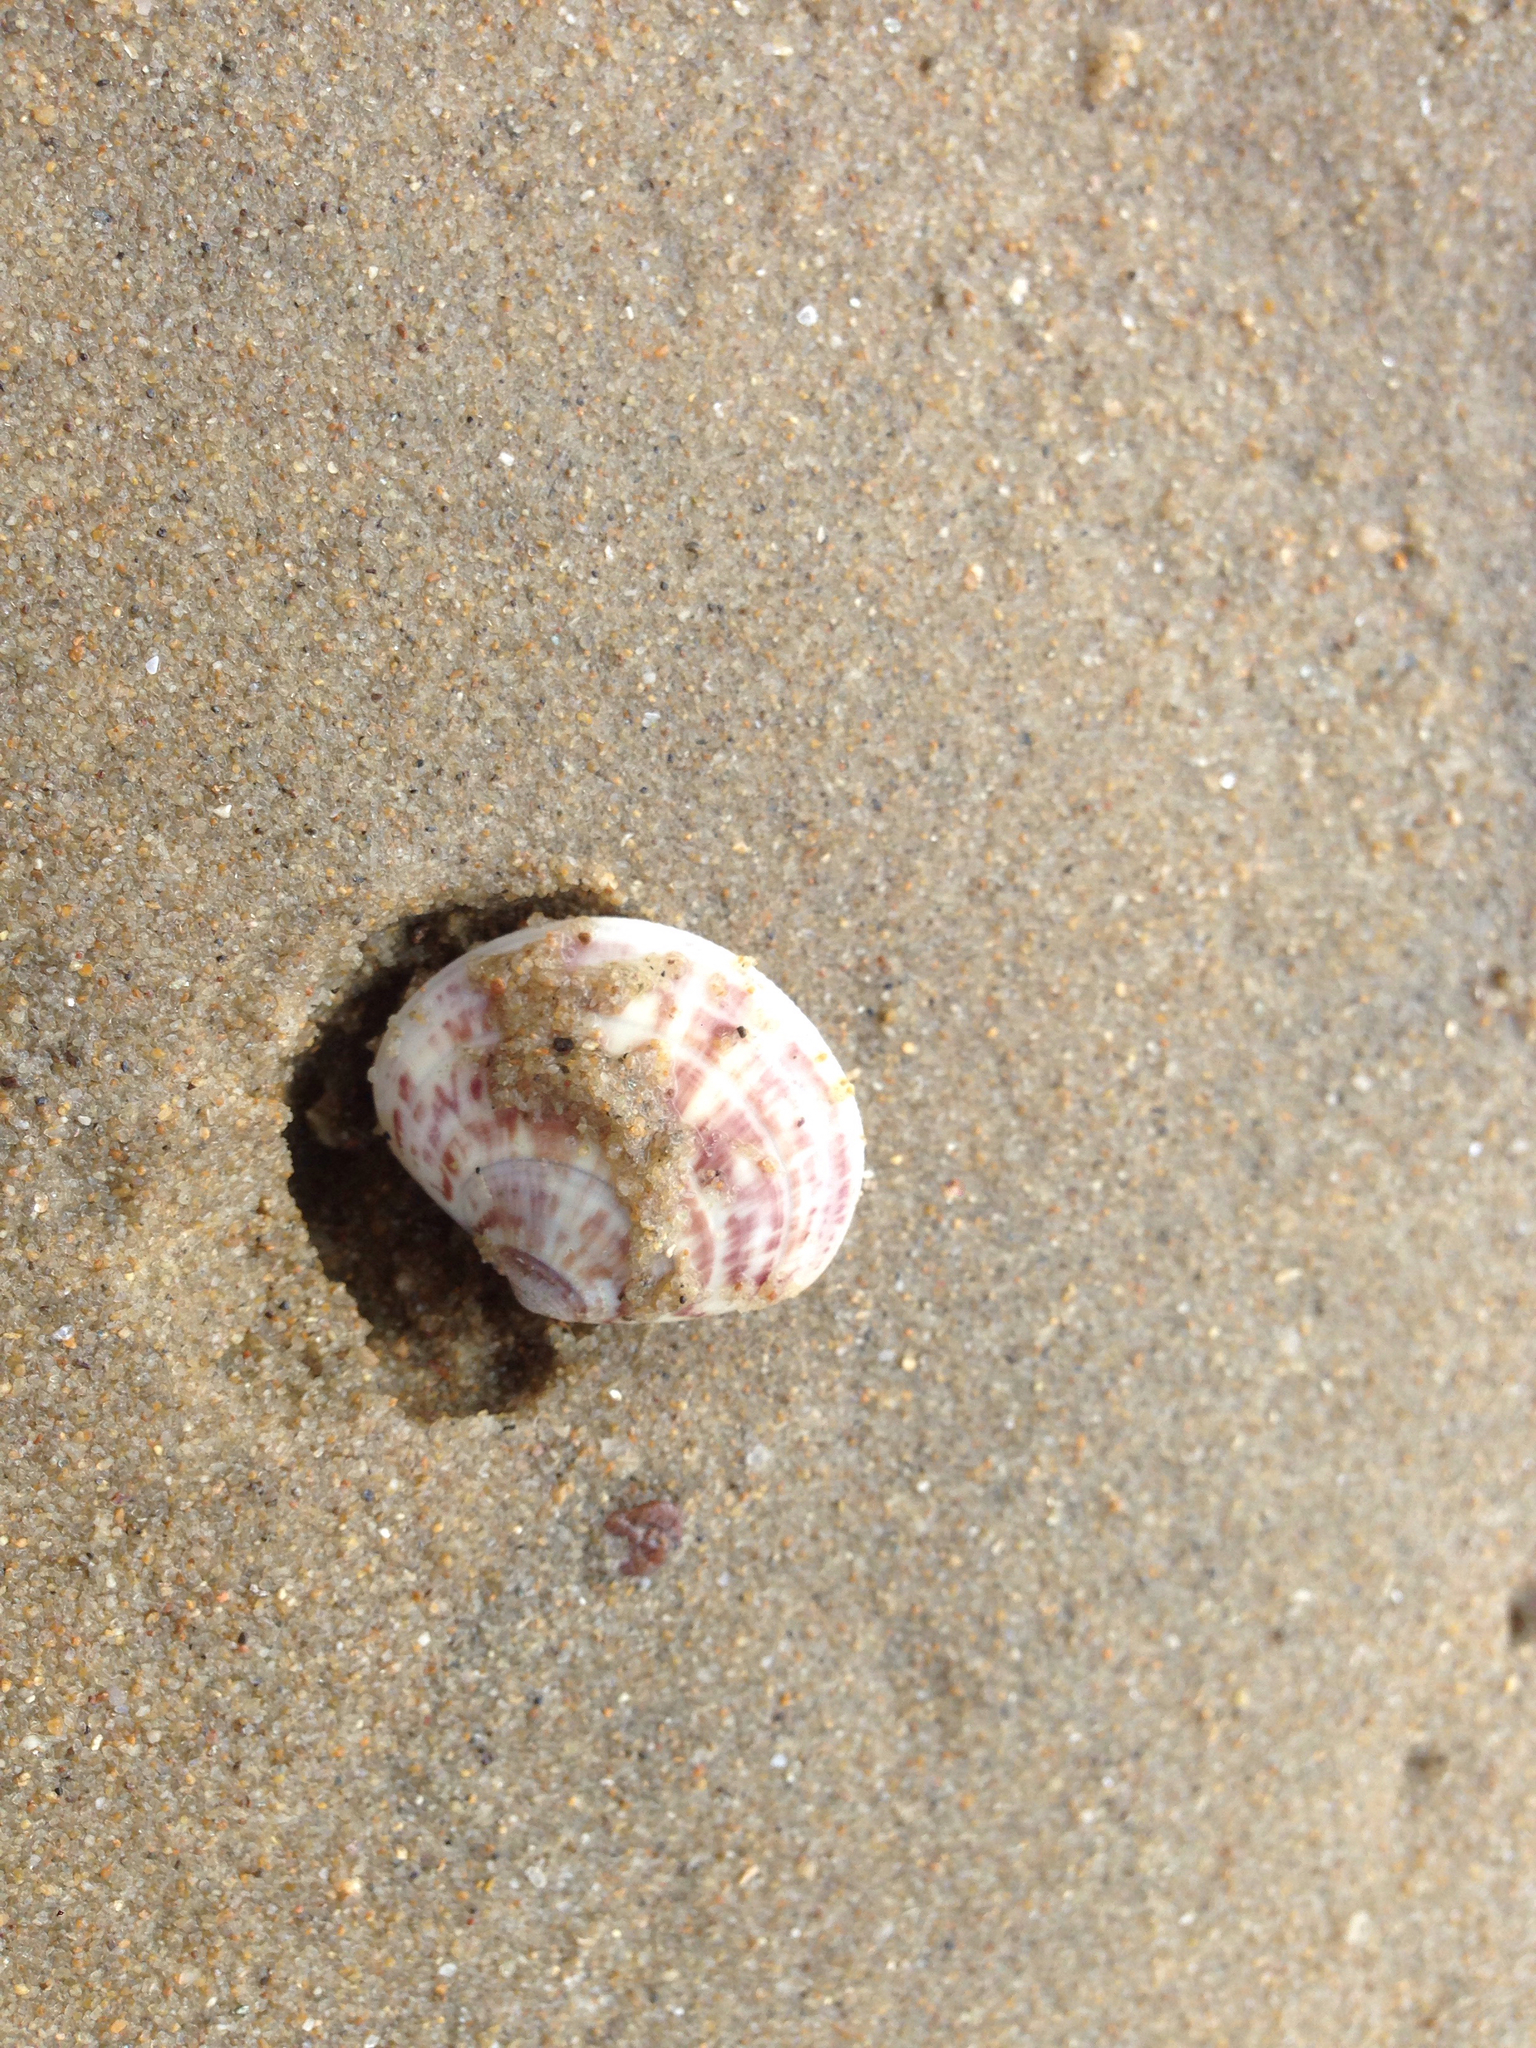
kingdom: Animalia
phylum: Mollusca
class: Bivalvia
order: Venerida
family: Veneridae
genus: Sunetta
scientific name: Sunetta sunettina
